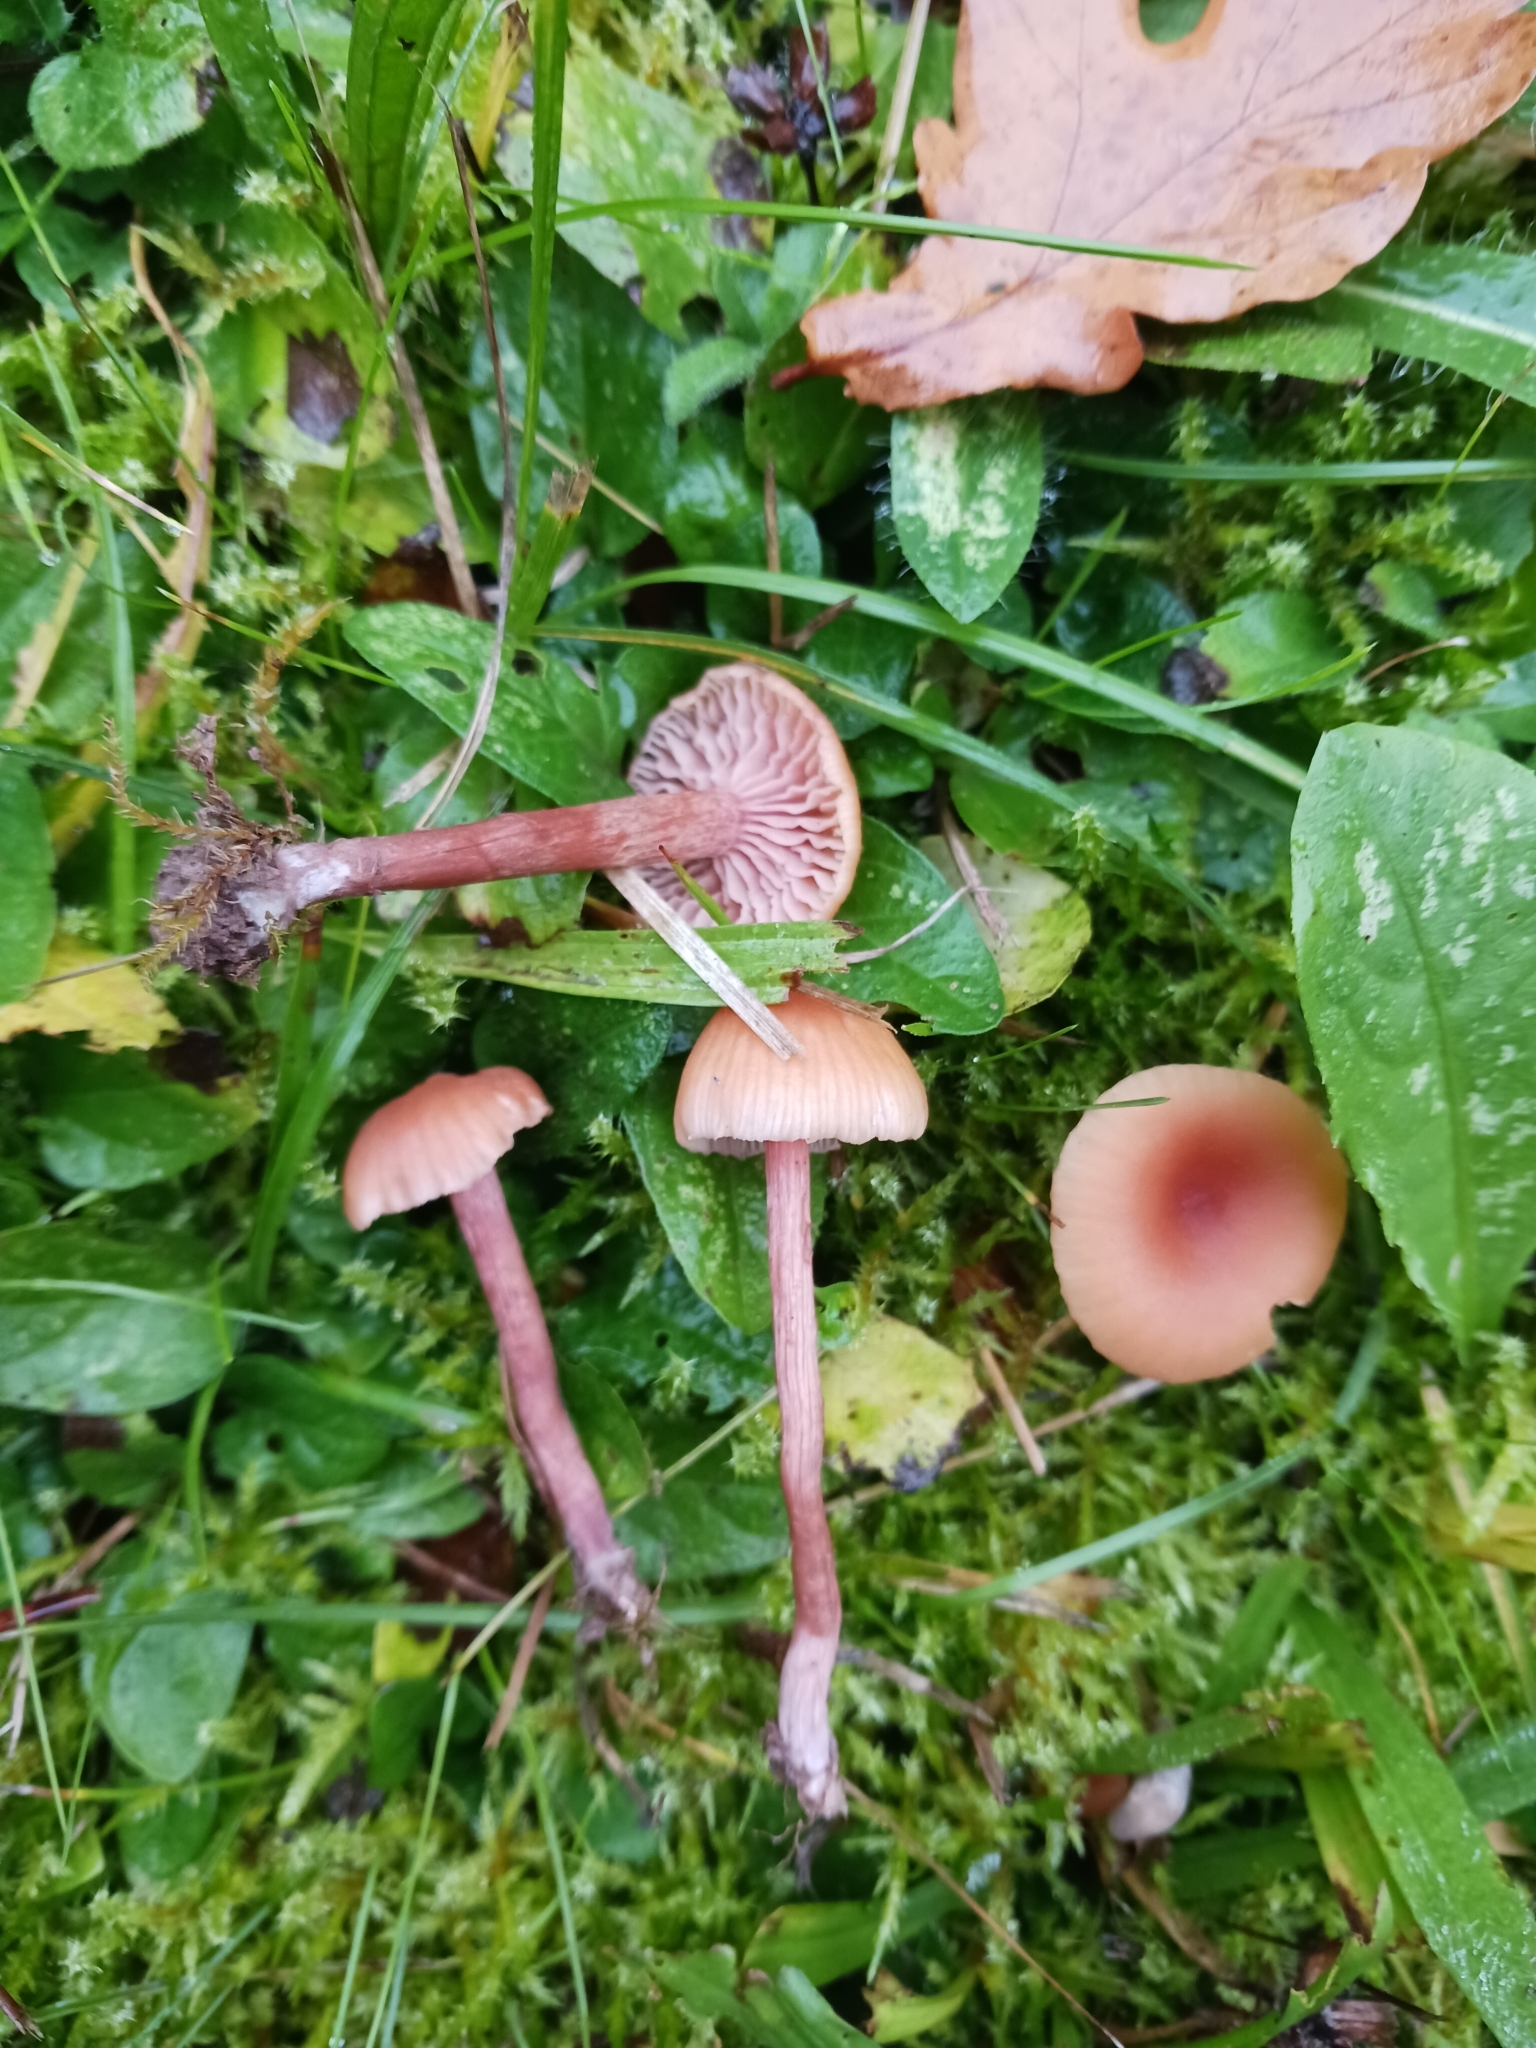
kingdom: Fungi
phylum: Basidiomycota
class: Agaricomycetes
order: Agaricales
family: Hydnangiaceae
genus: Laccaria
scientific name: Laccaria
